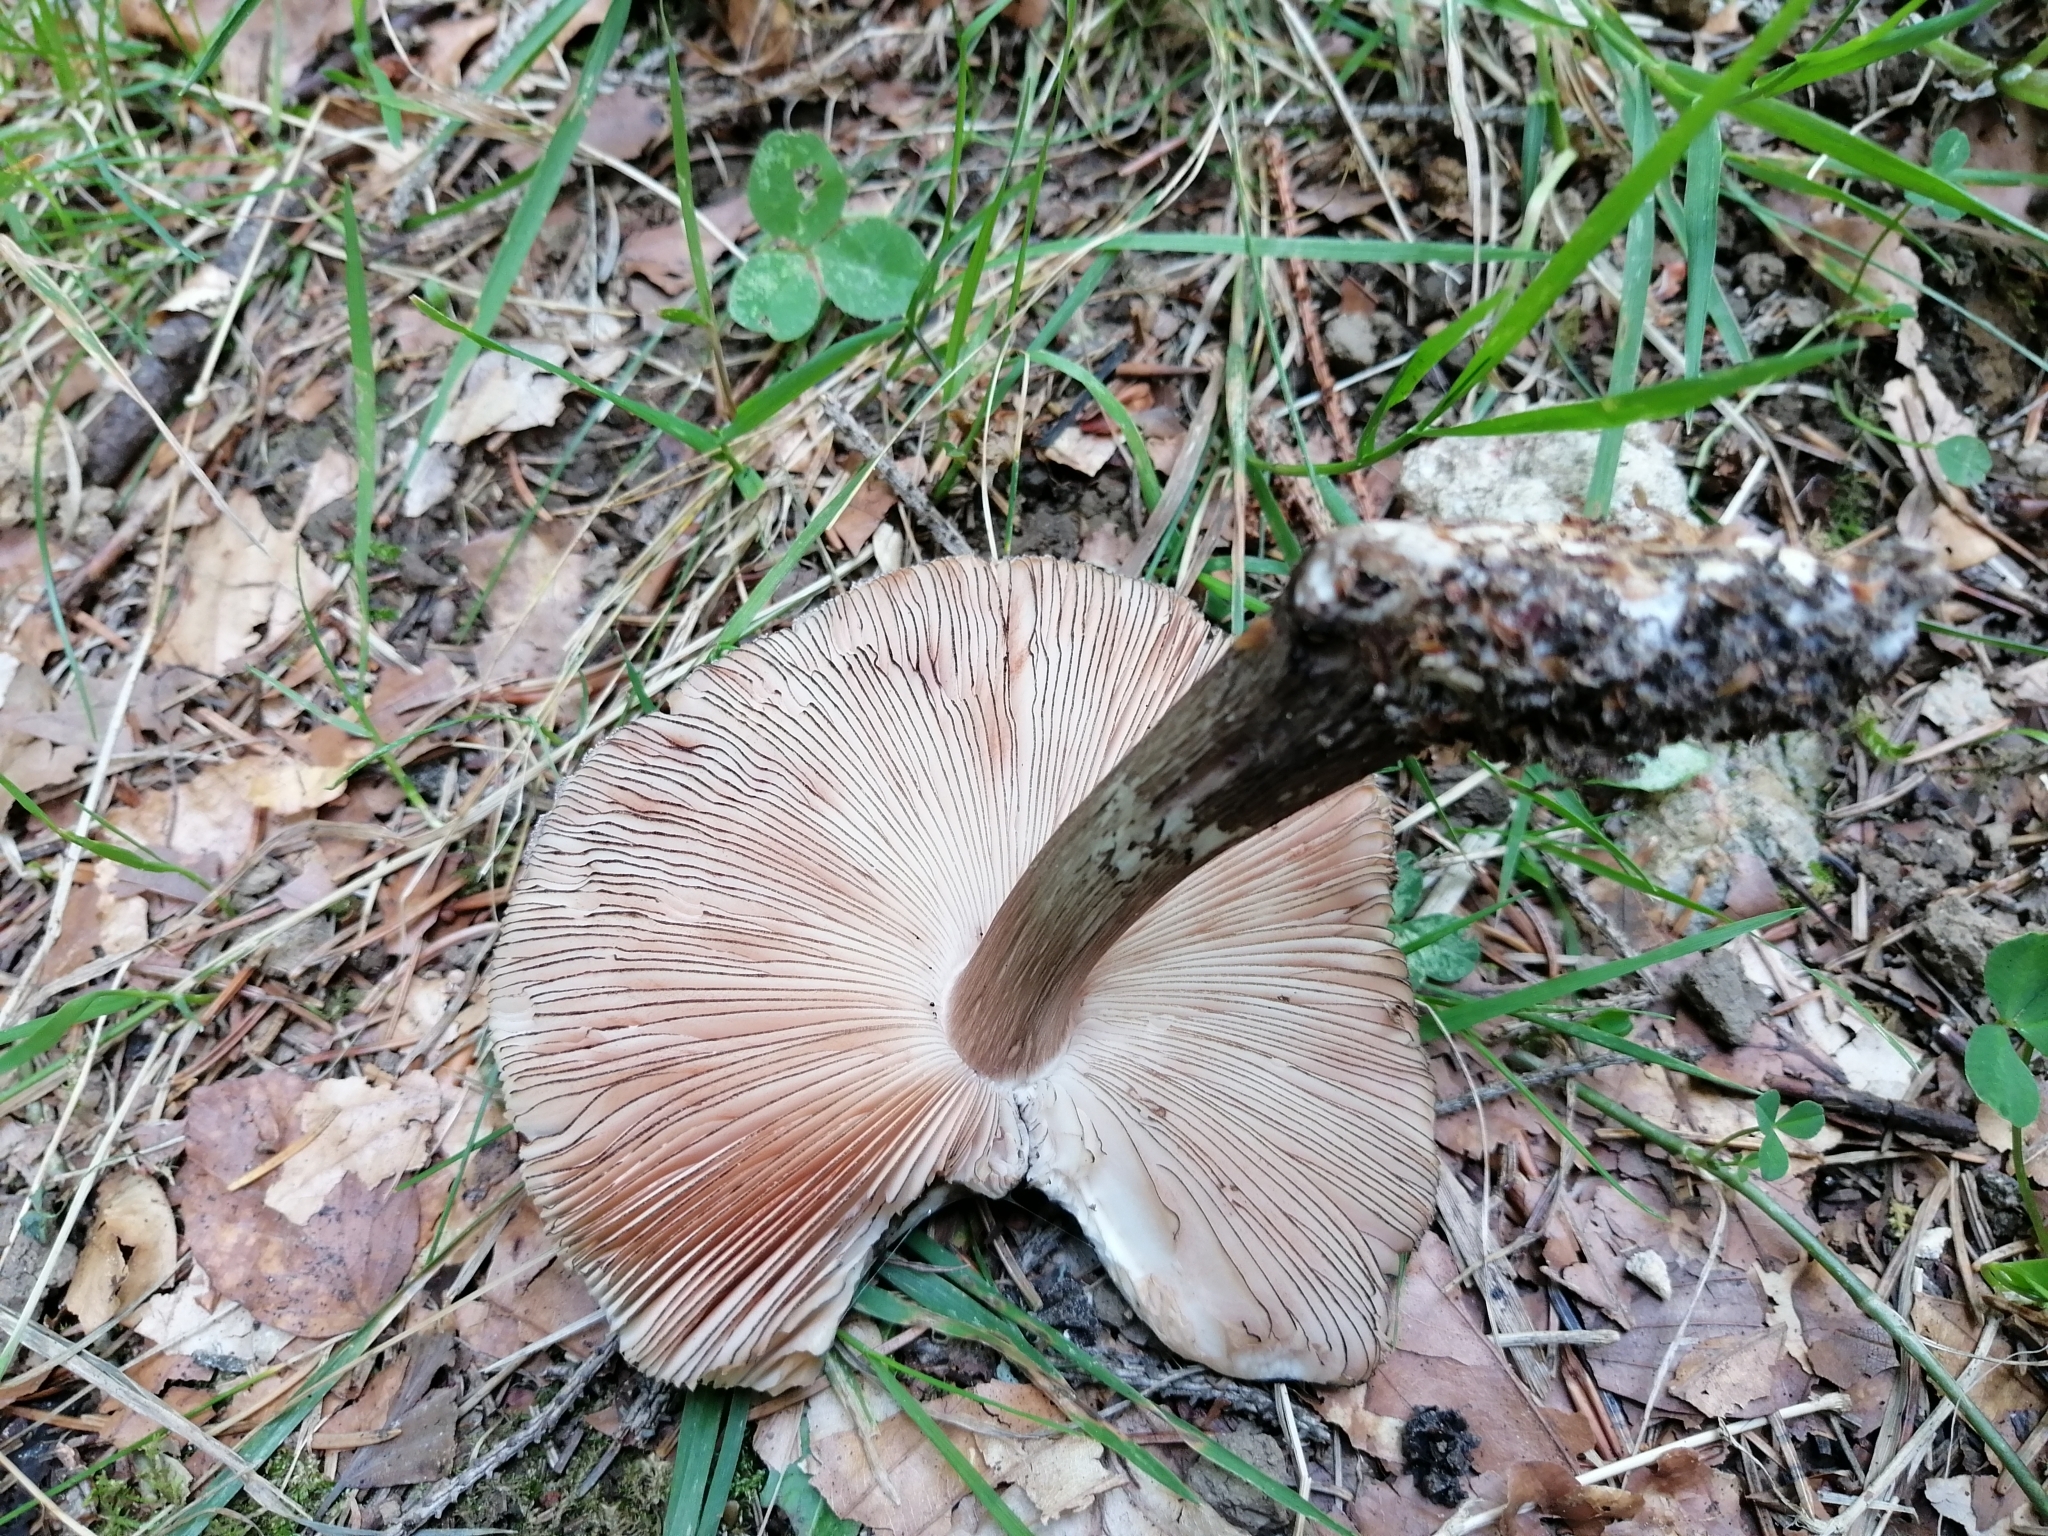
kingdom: Fungi
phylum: Basidiomycota
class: Agaricomycetes
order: Agaricales
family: Pluteaceae
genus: Pluteus
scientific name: Pluteus atromarginatus
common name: Blackedged shield
